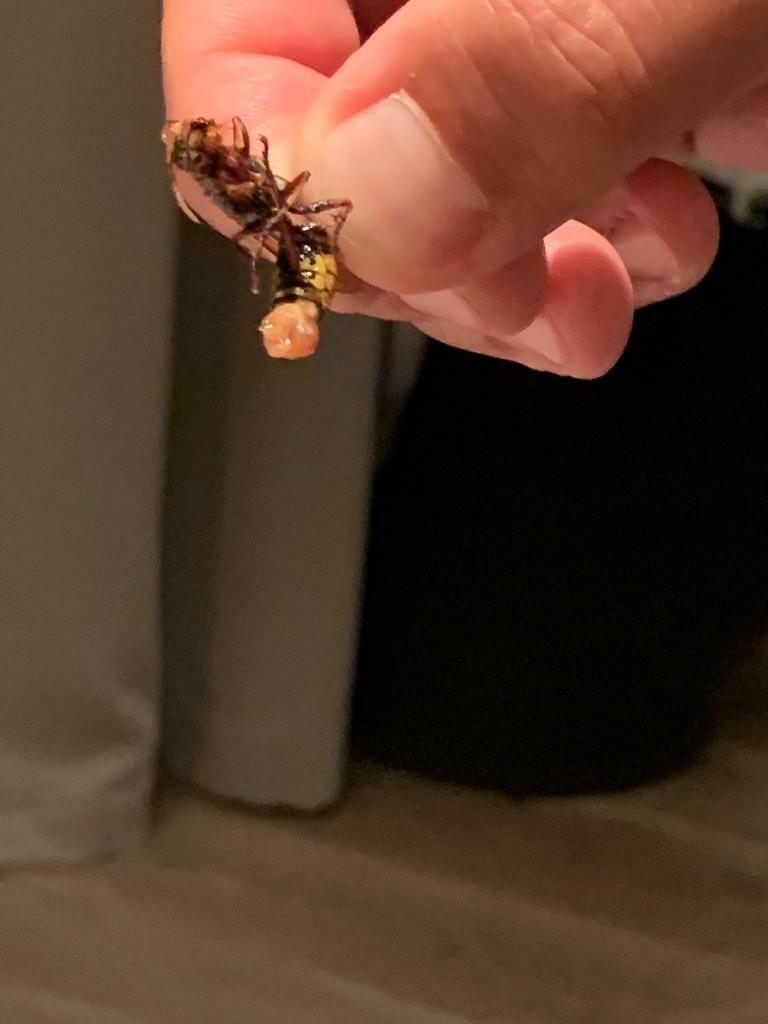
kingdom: Animalia
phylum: Arthropoda
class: Insecta
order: Hymenoptera
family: Vespidae
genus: Vespa
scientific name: Vespa crabro
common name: Hornet
